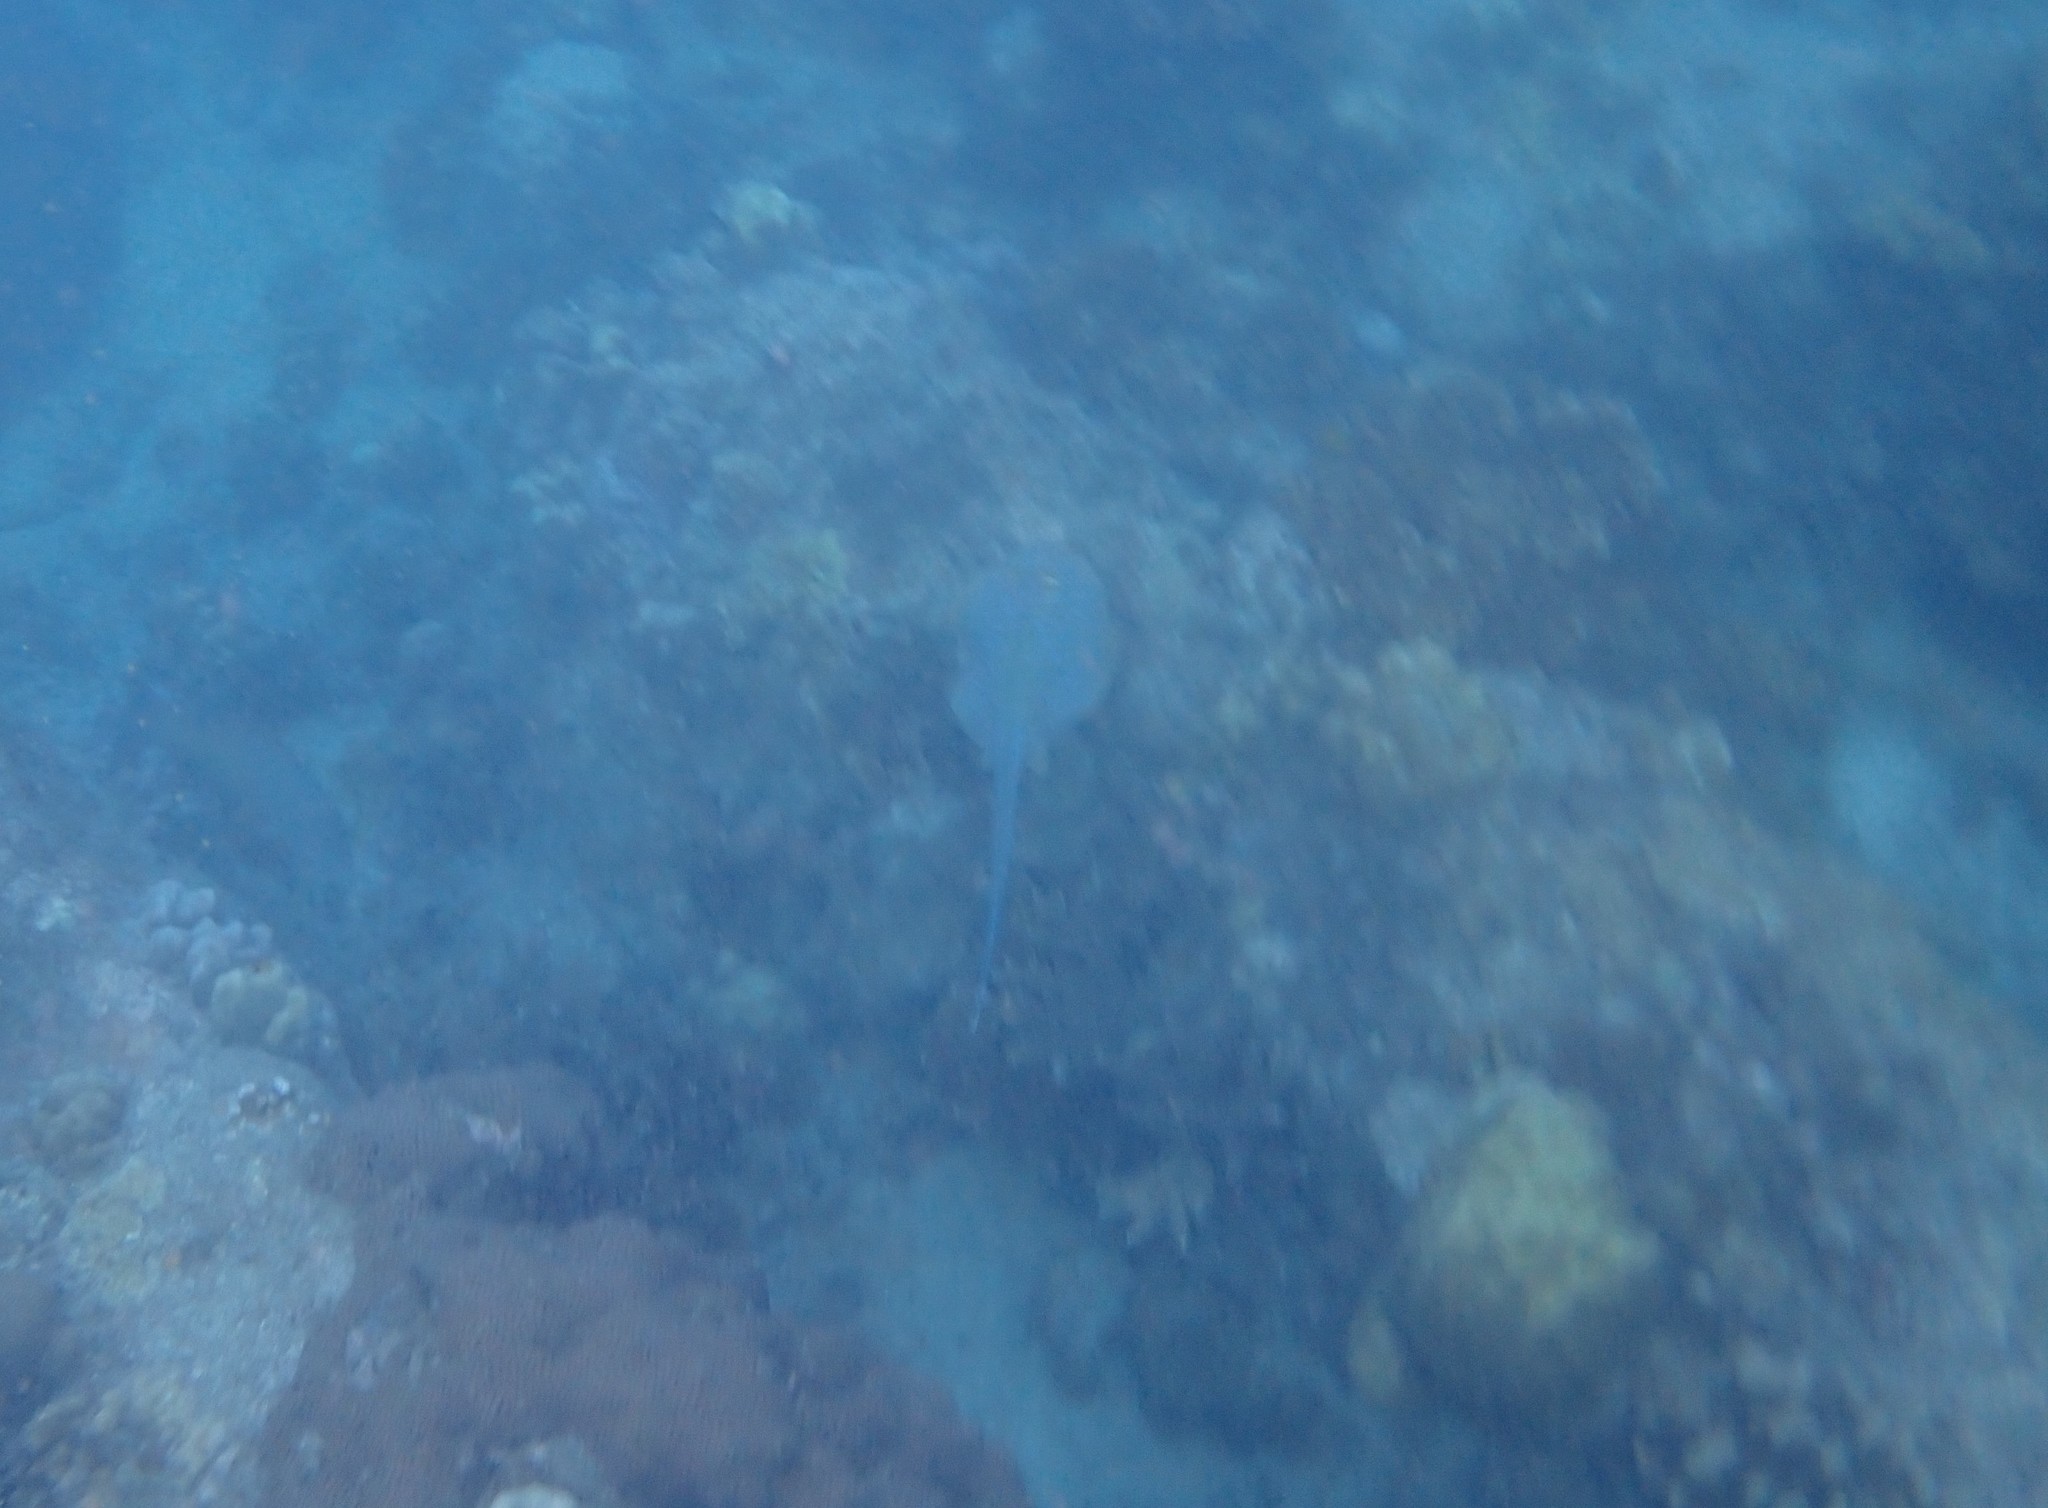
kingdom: Animalia
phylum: Chordata
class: Elasmobranchii
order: Myliobatiformes
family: Dasyatidae
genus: Taeniura
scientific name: Taeniura lymma
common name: Bluespotted ribbontail ray
